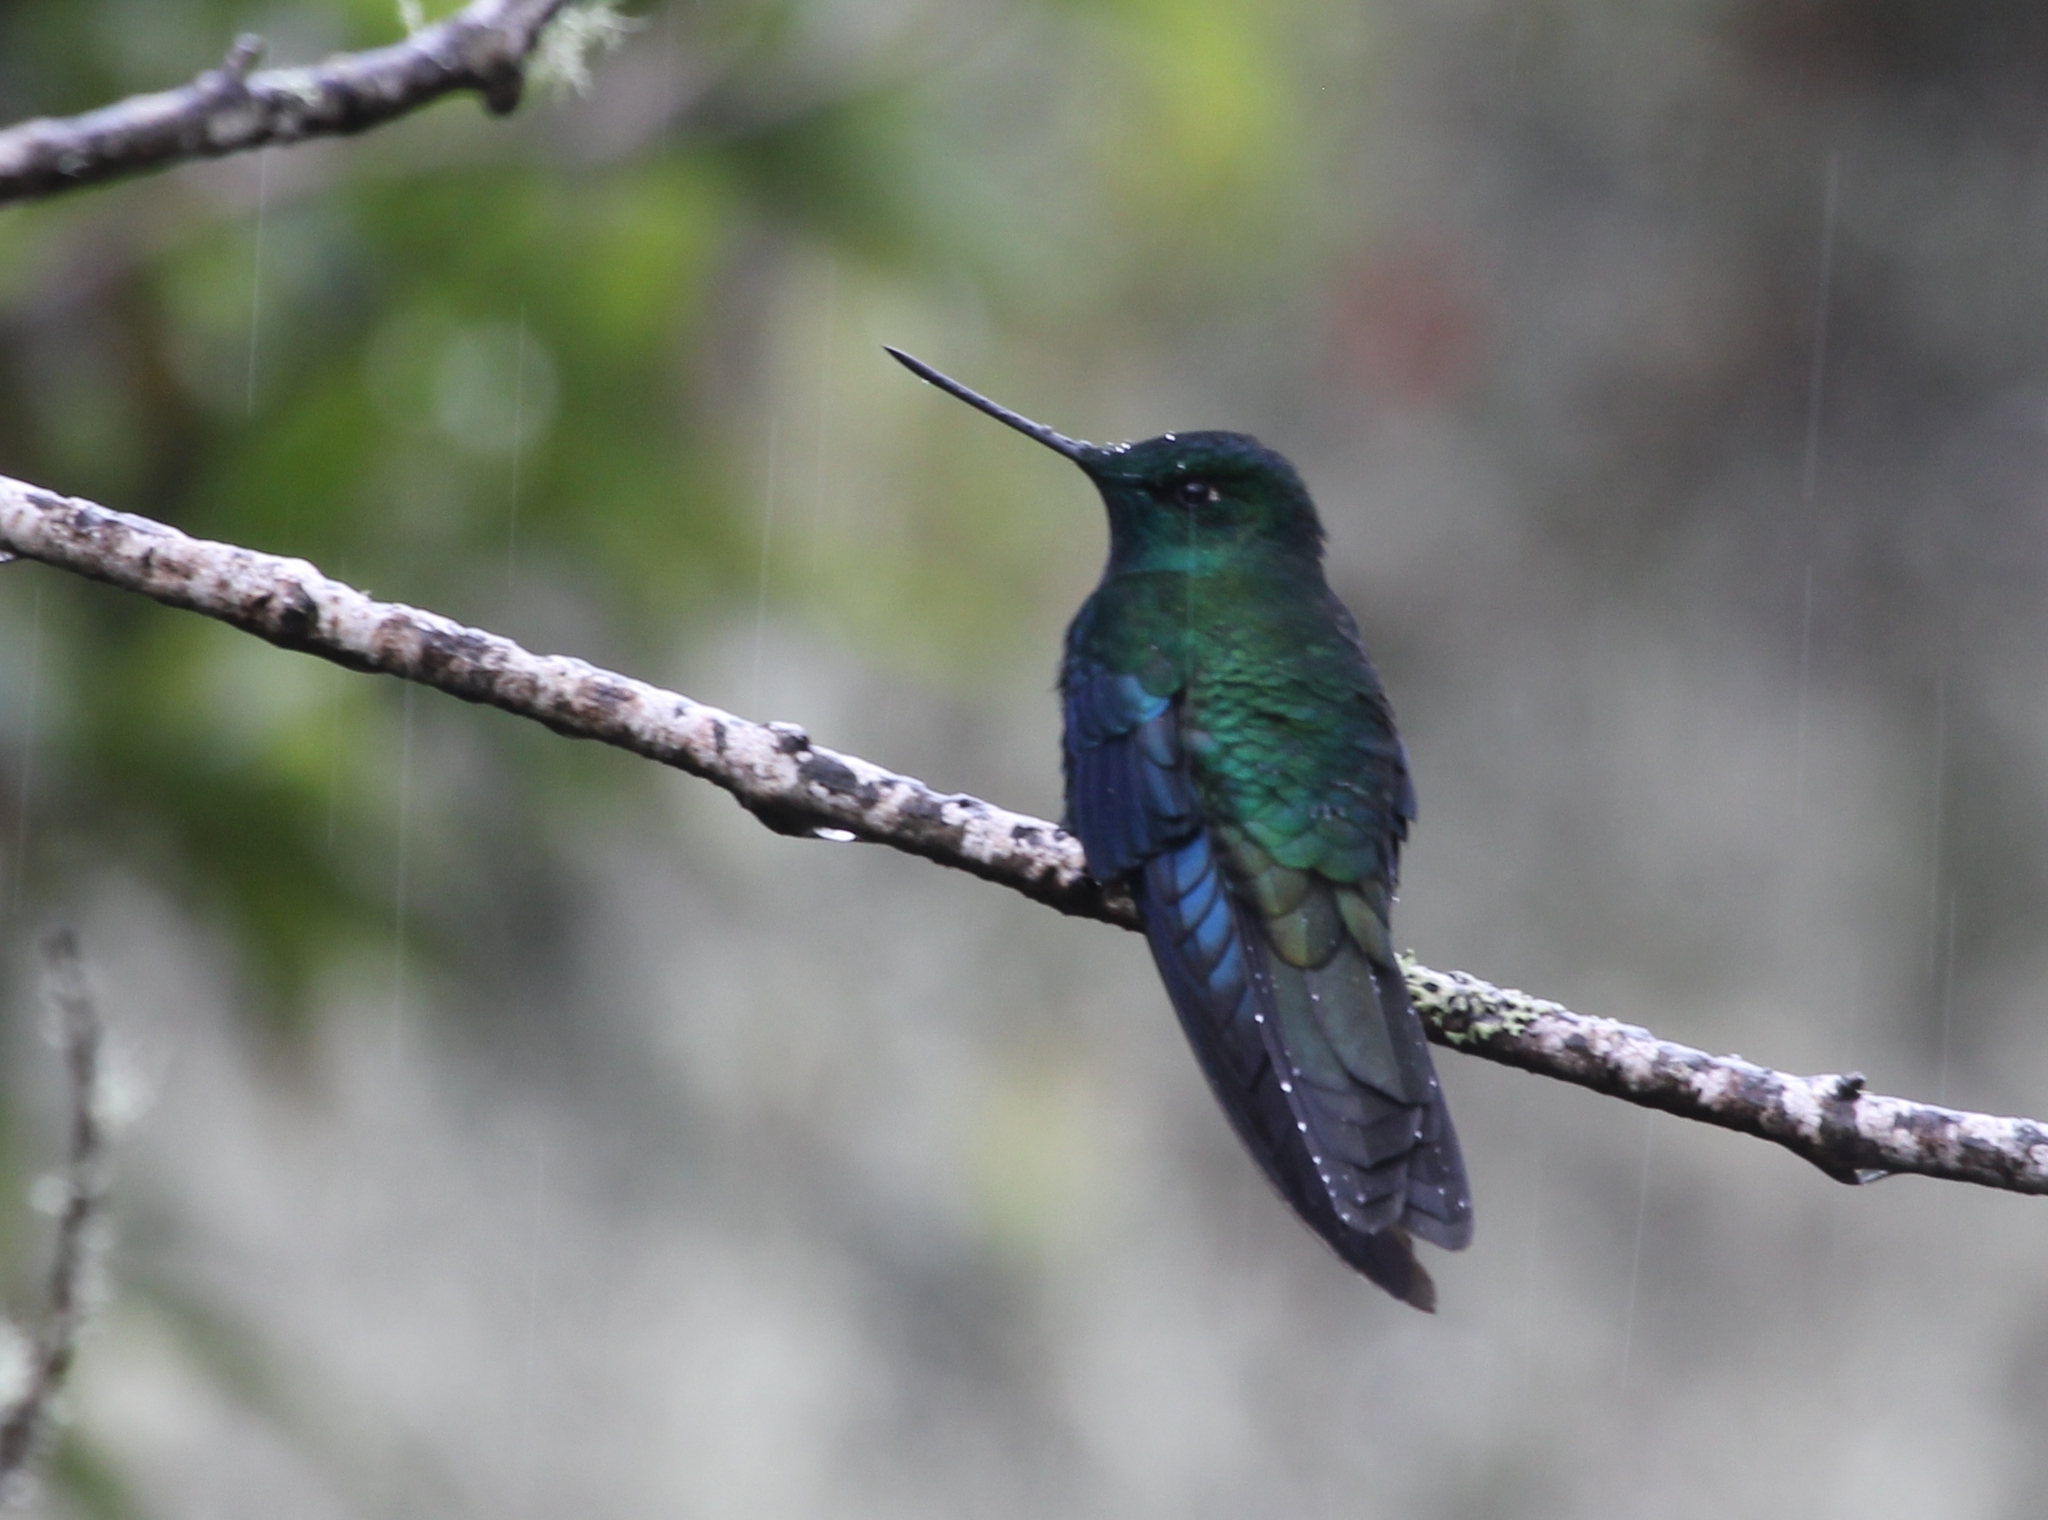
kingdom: Animalia
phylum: Chordata
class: Aves
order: Apodiformes
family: Trochilidae
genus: Pterophanes
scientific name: Pterophanes cyanopterus
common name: Great sapphirewing
